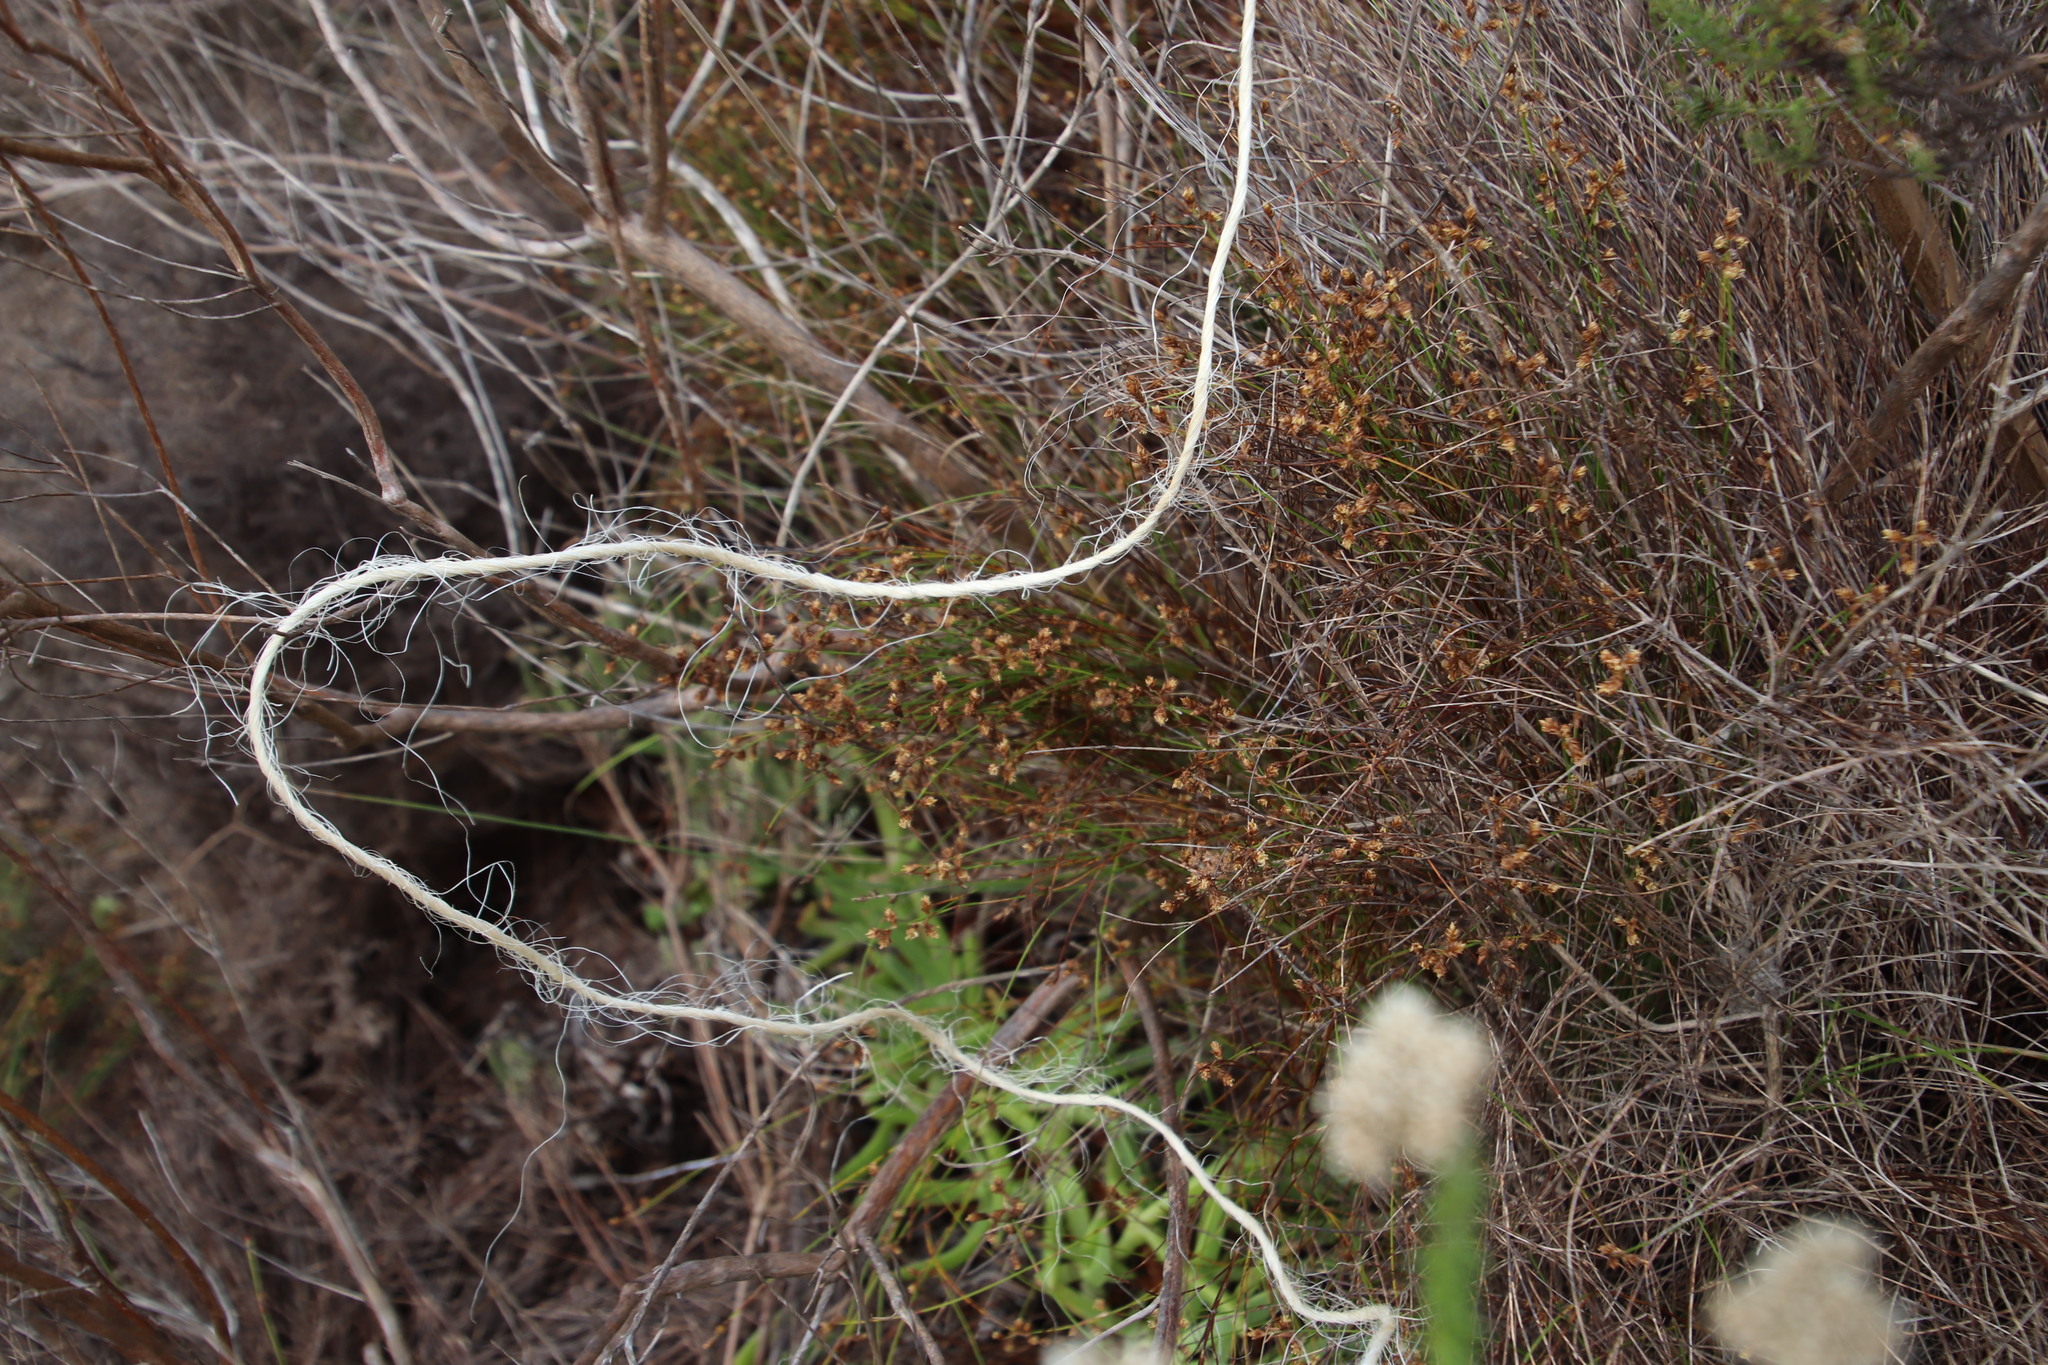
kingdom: Plantae
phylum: Tracheophyta
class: Liliopsida
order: Poales
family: Restionaceae
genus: Mastersiella
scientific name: Mastersiella digitata
